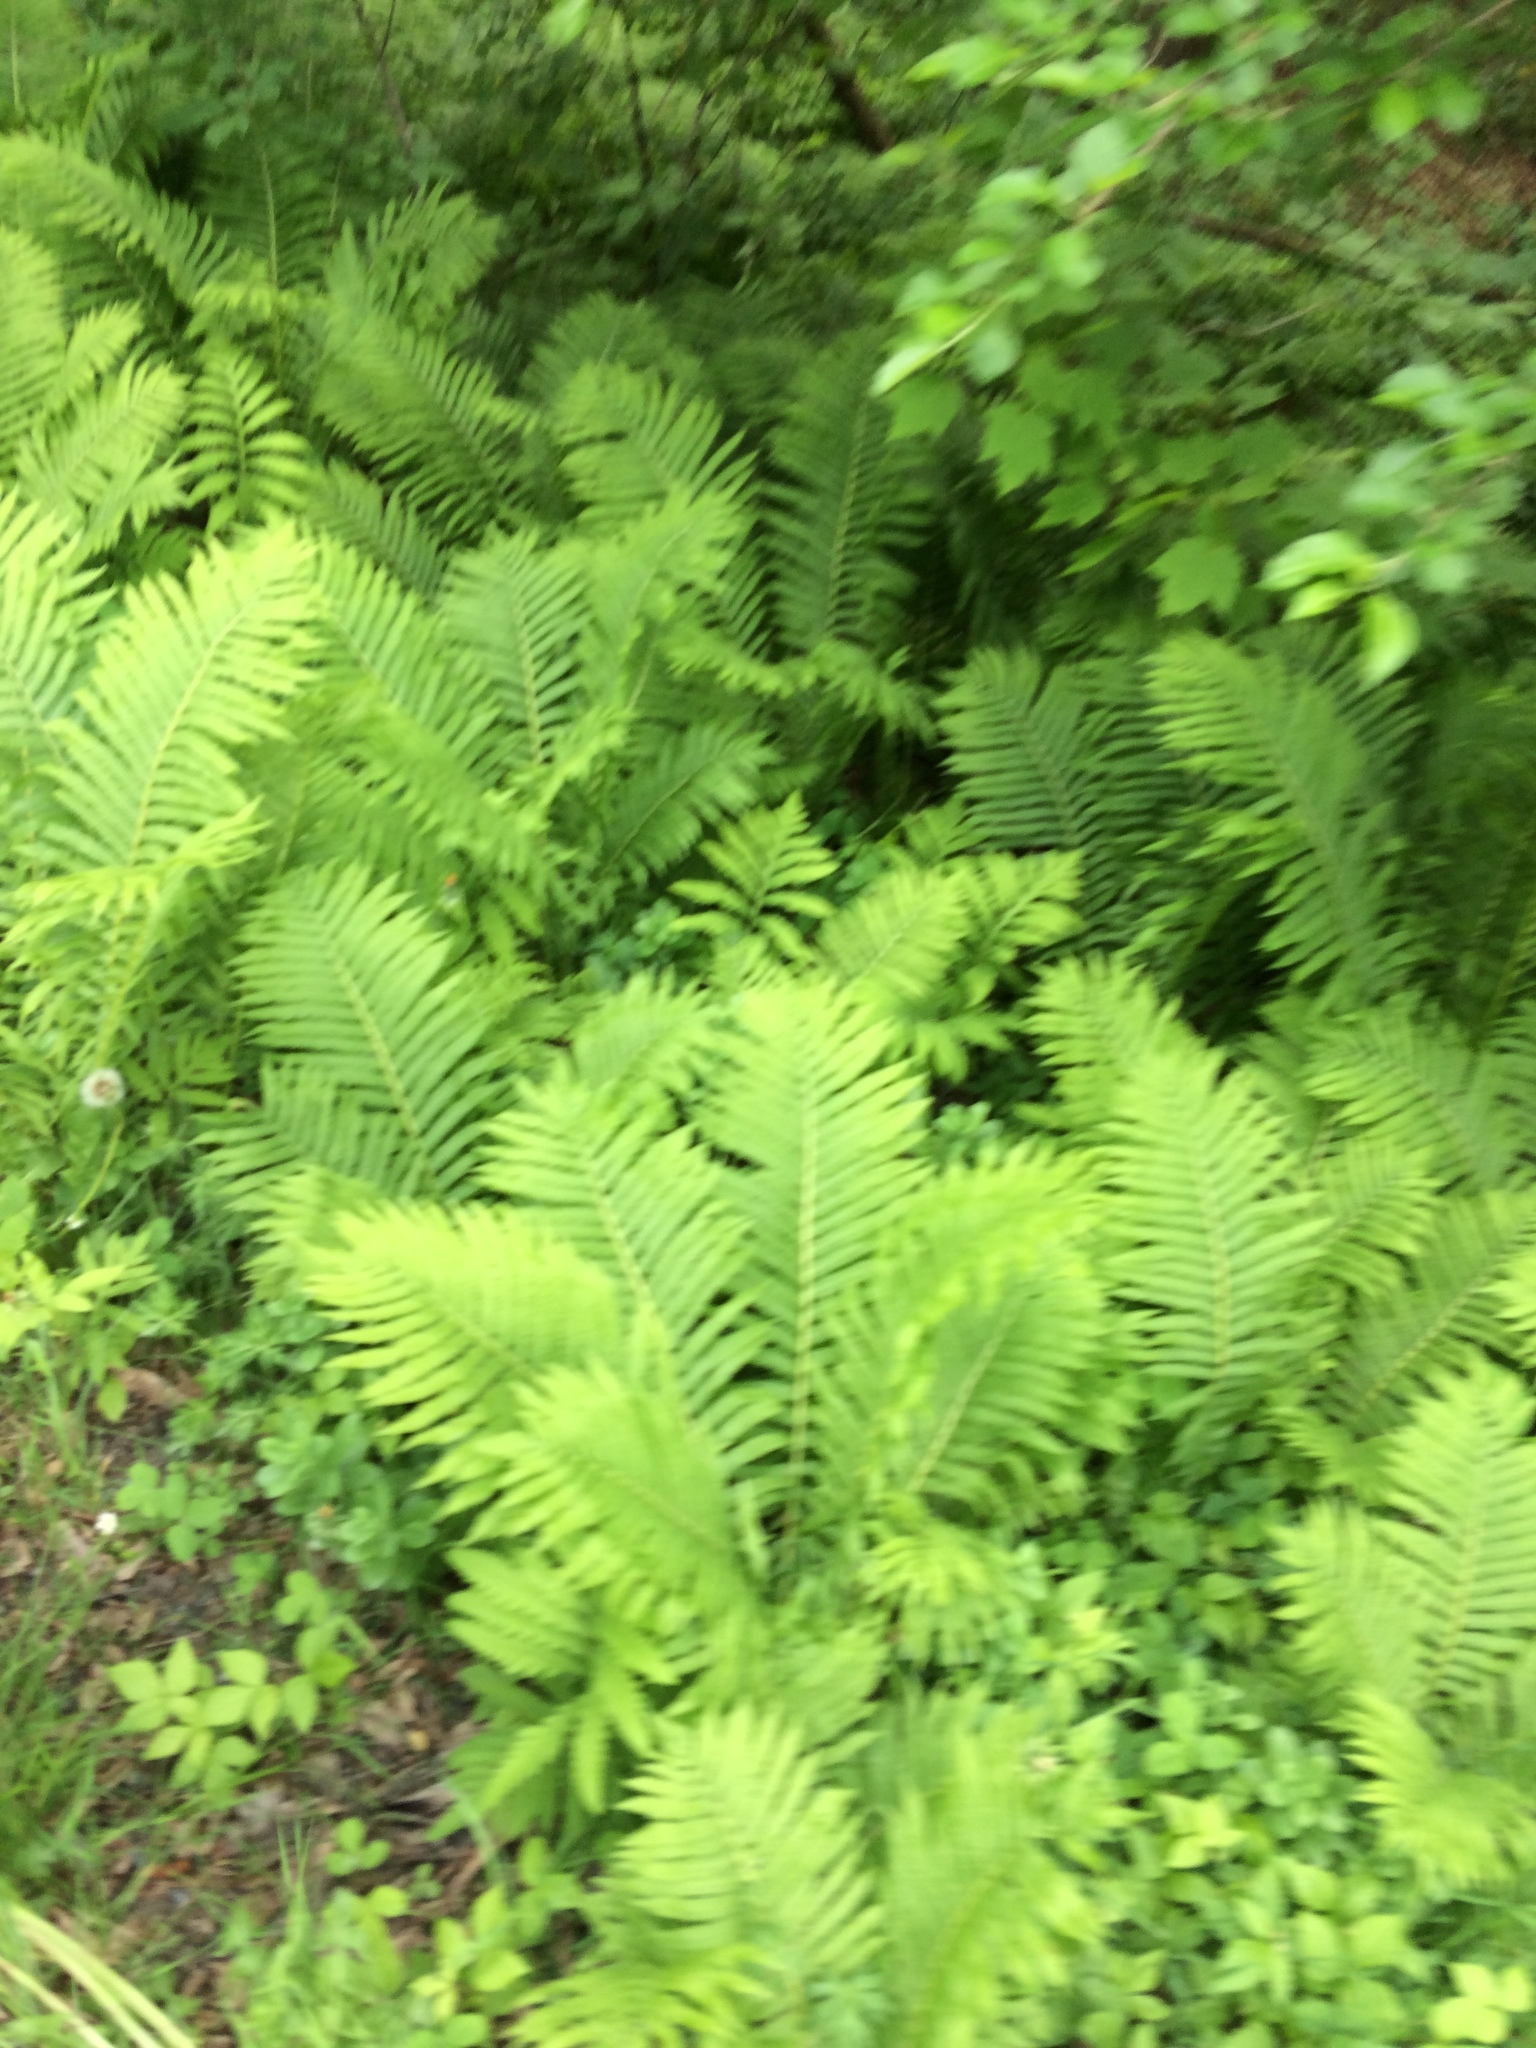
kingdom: Plantae
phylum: Tracheophyta
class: Polypodiopsida
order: Polypodiales
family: Onocleaceae
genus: Matteuccia
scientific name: Matteuccia struthiopteris
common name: Ostrich fern
